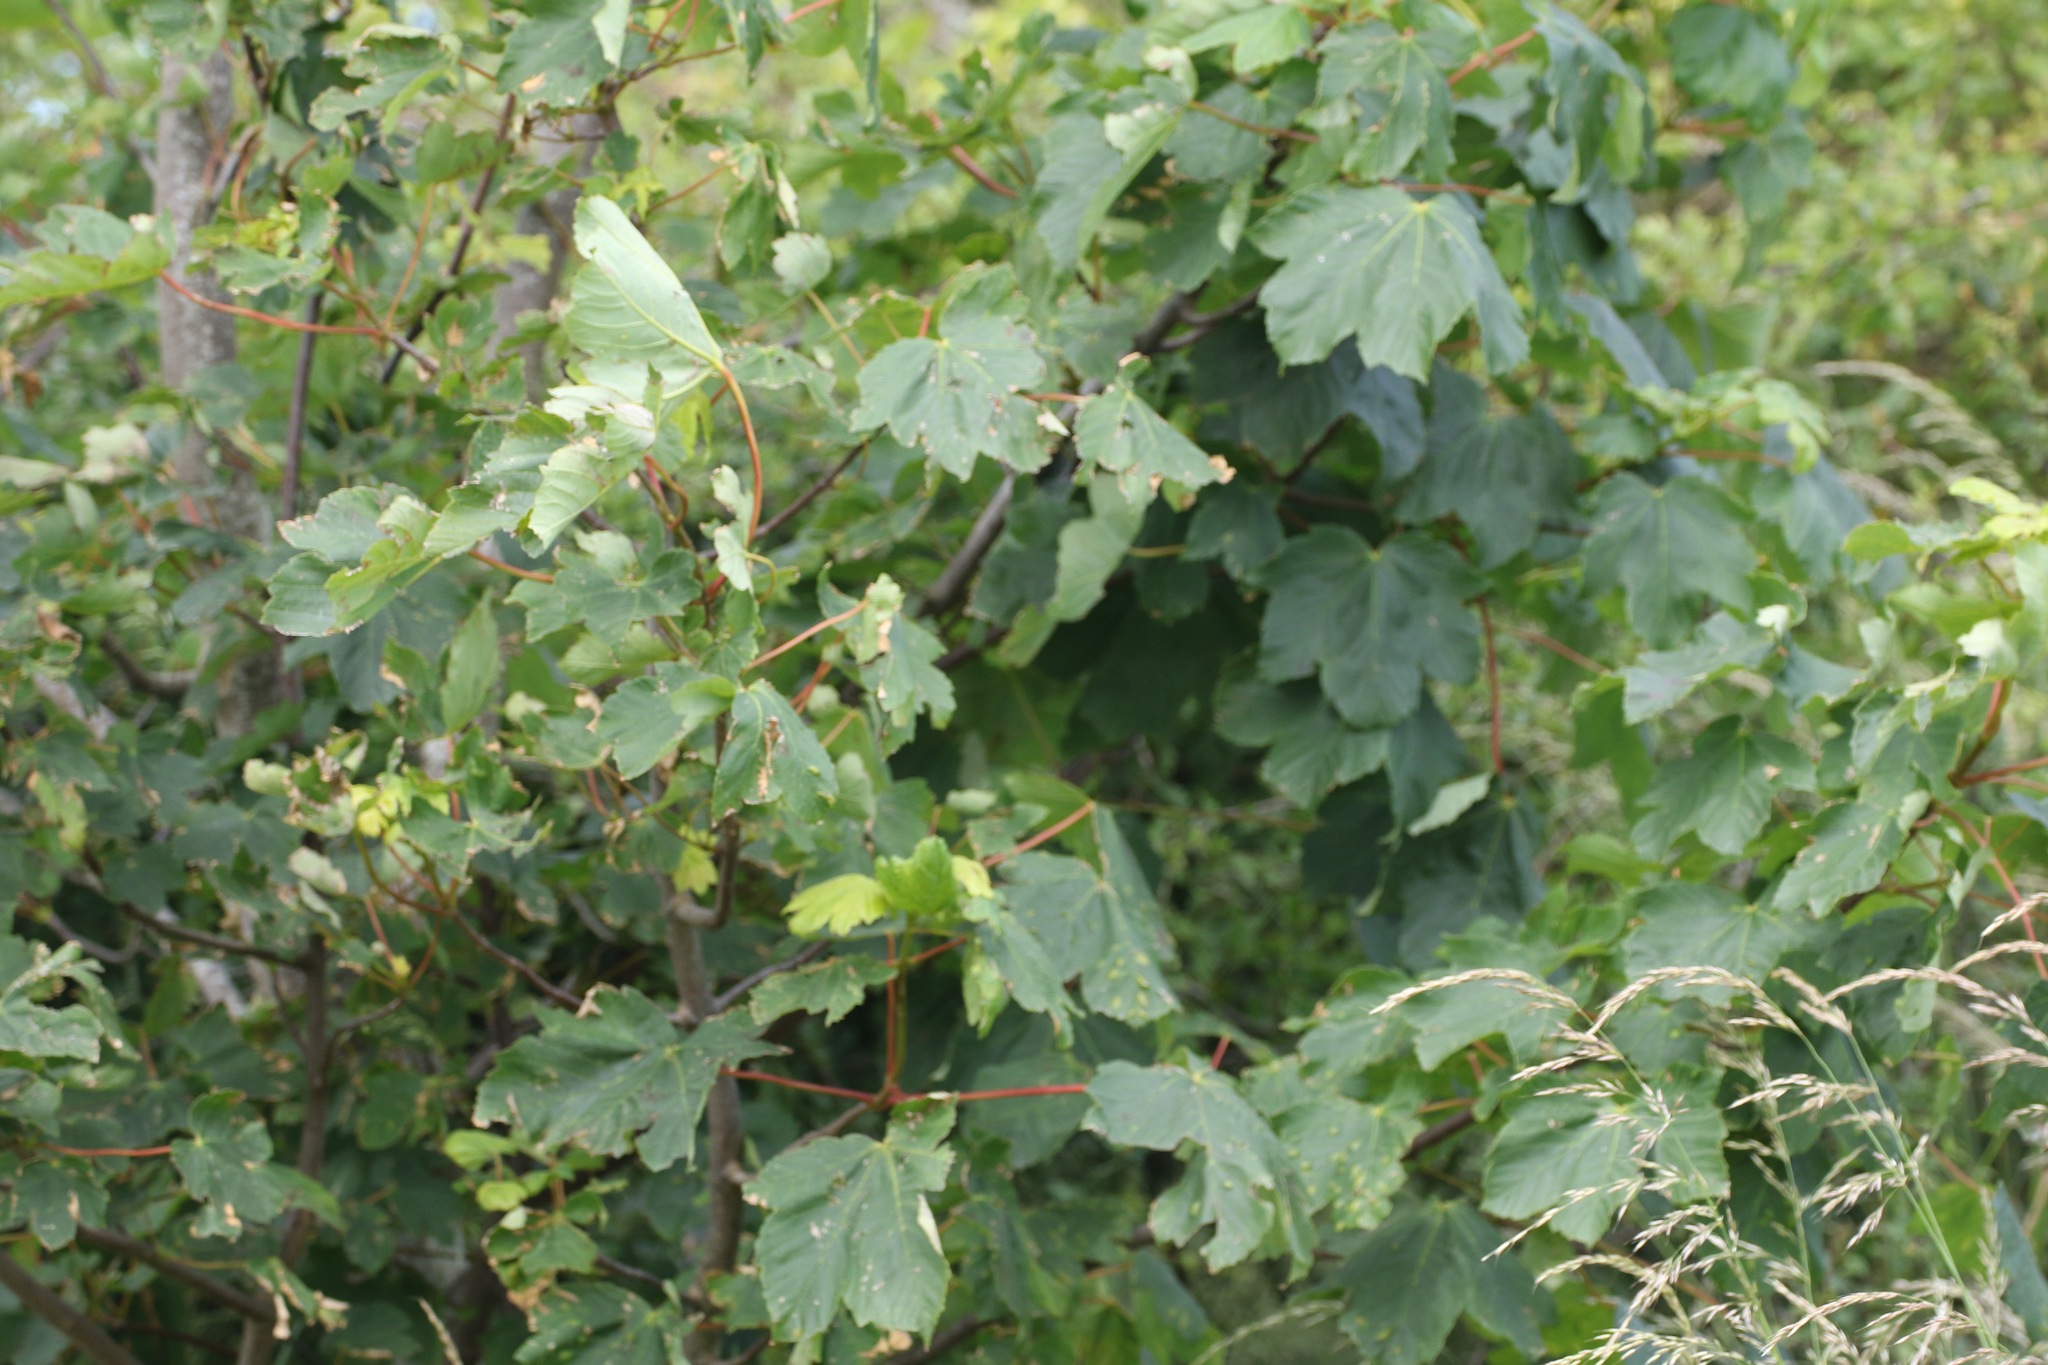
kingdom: Plantae
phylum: Tracheophyta
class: Magnoliopsida
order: Sapindales
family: Sapindaceae
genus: Acer
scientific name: Acer pseudoplatanus
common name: Sycamore
